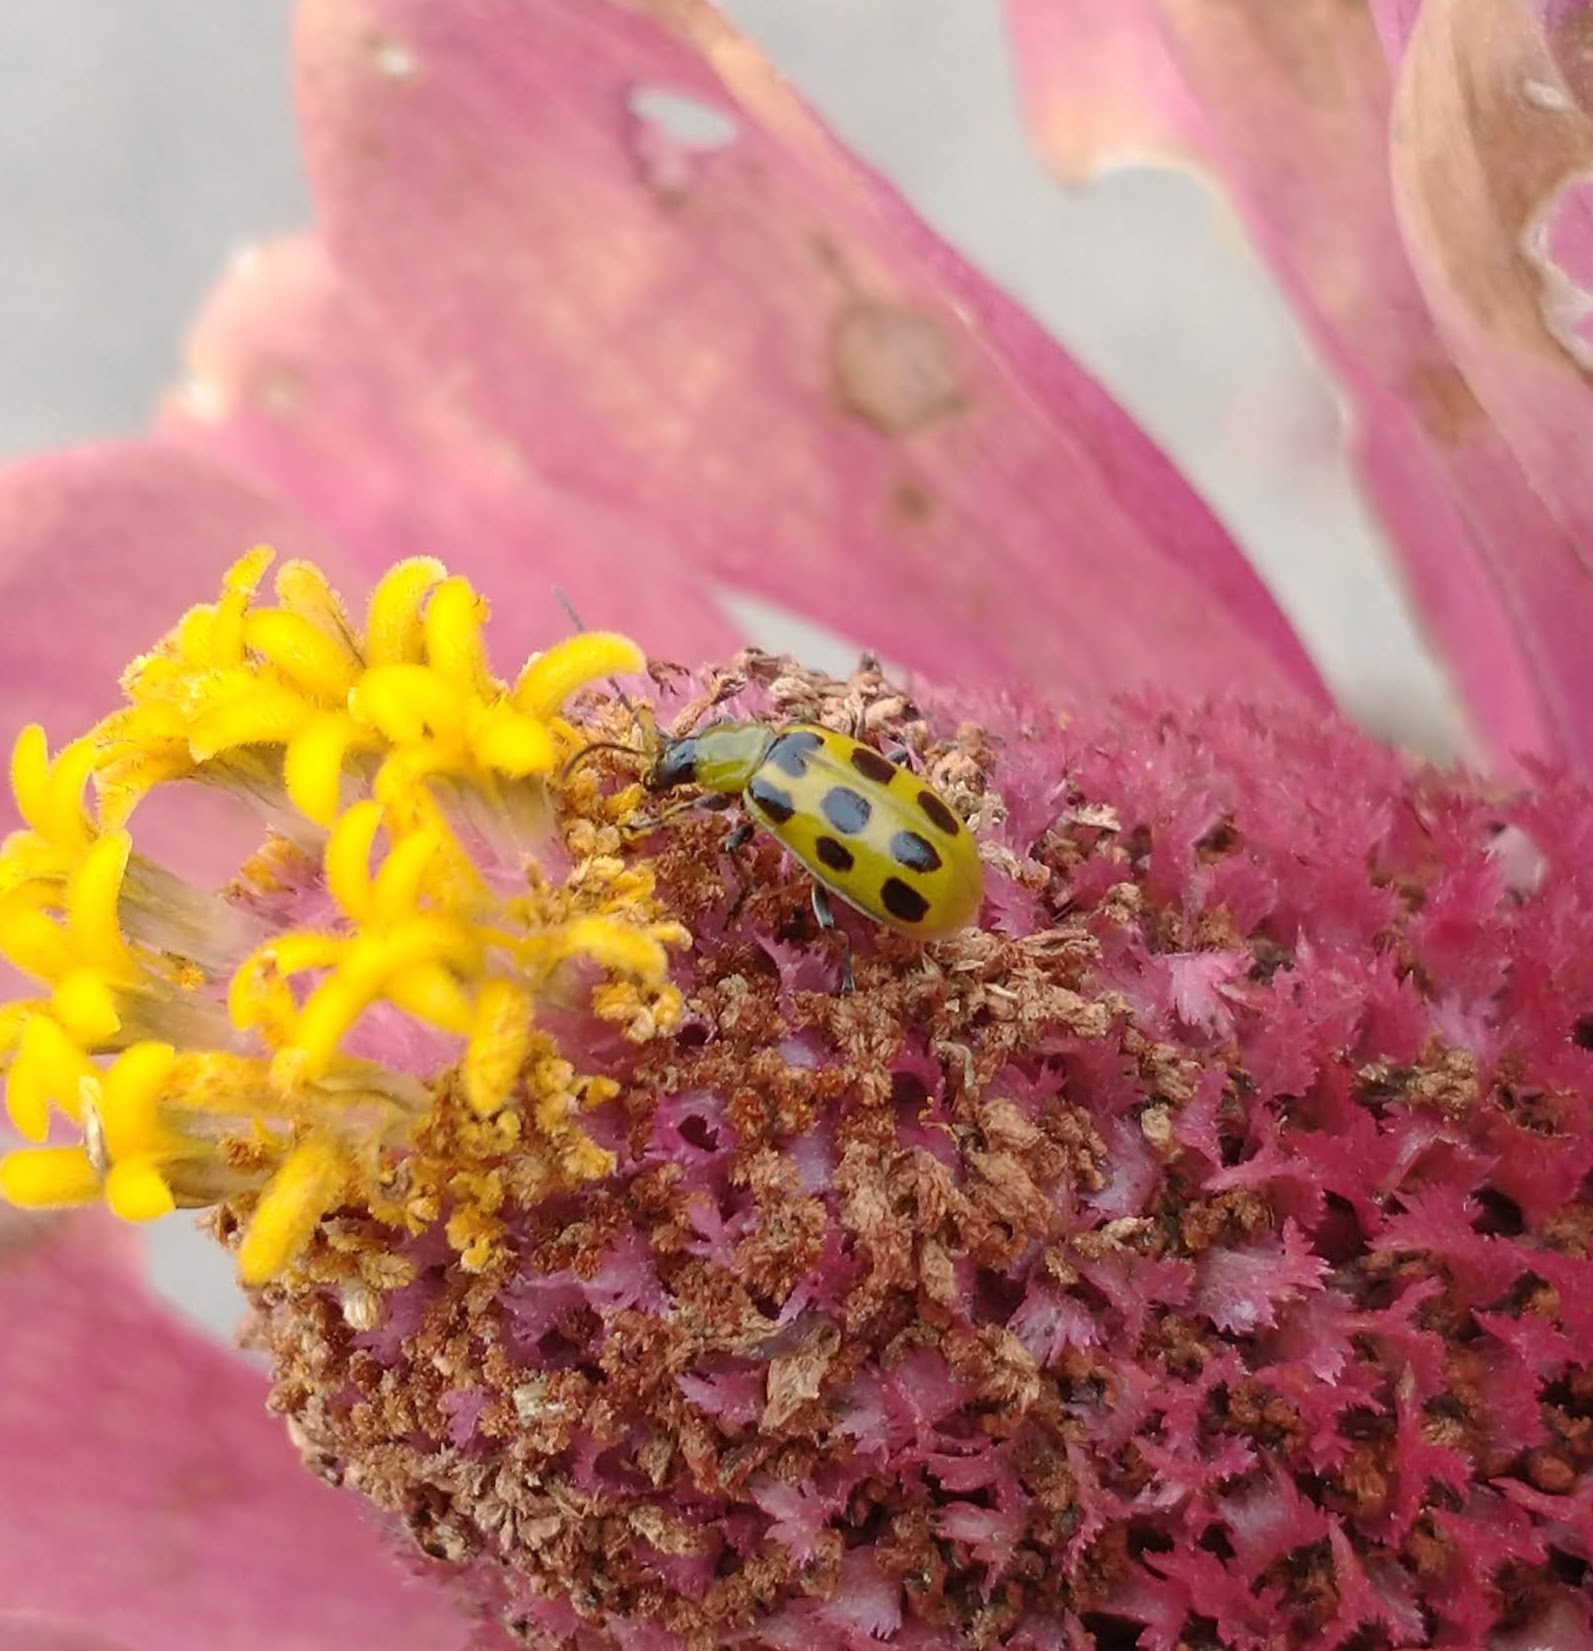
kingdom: Animalia
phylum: Arthropoda
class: Insecta
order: Coleoptera
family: Chrysomelidae
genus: Diabrotica
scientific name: Diabrotica undecimpunctata
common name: Spotted cucumber beetle
